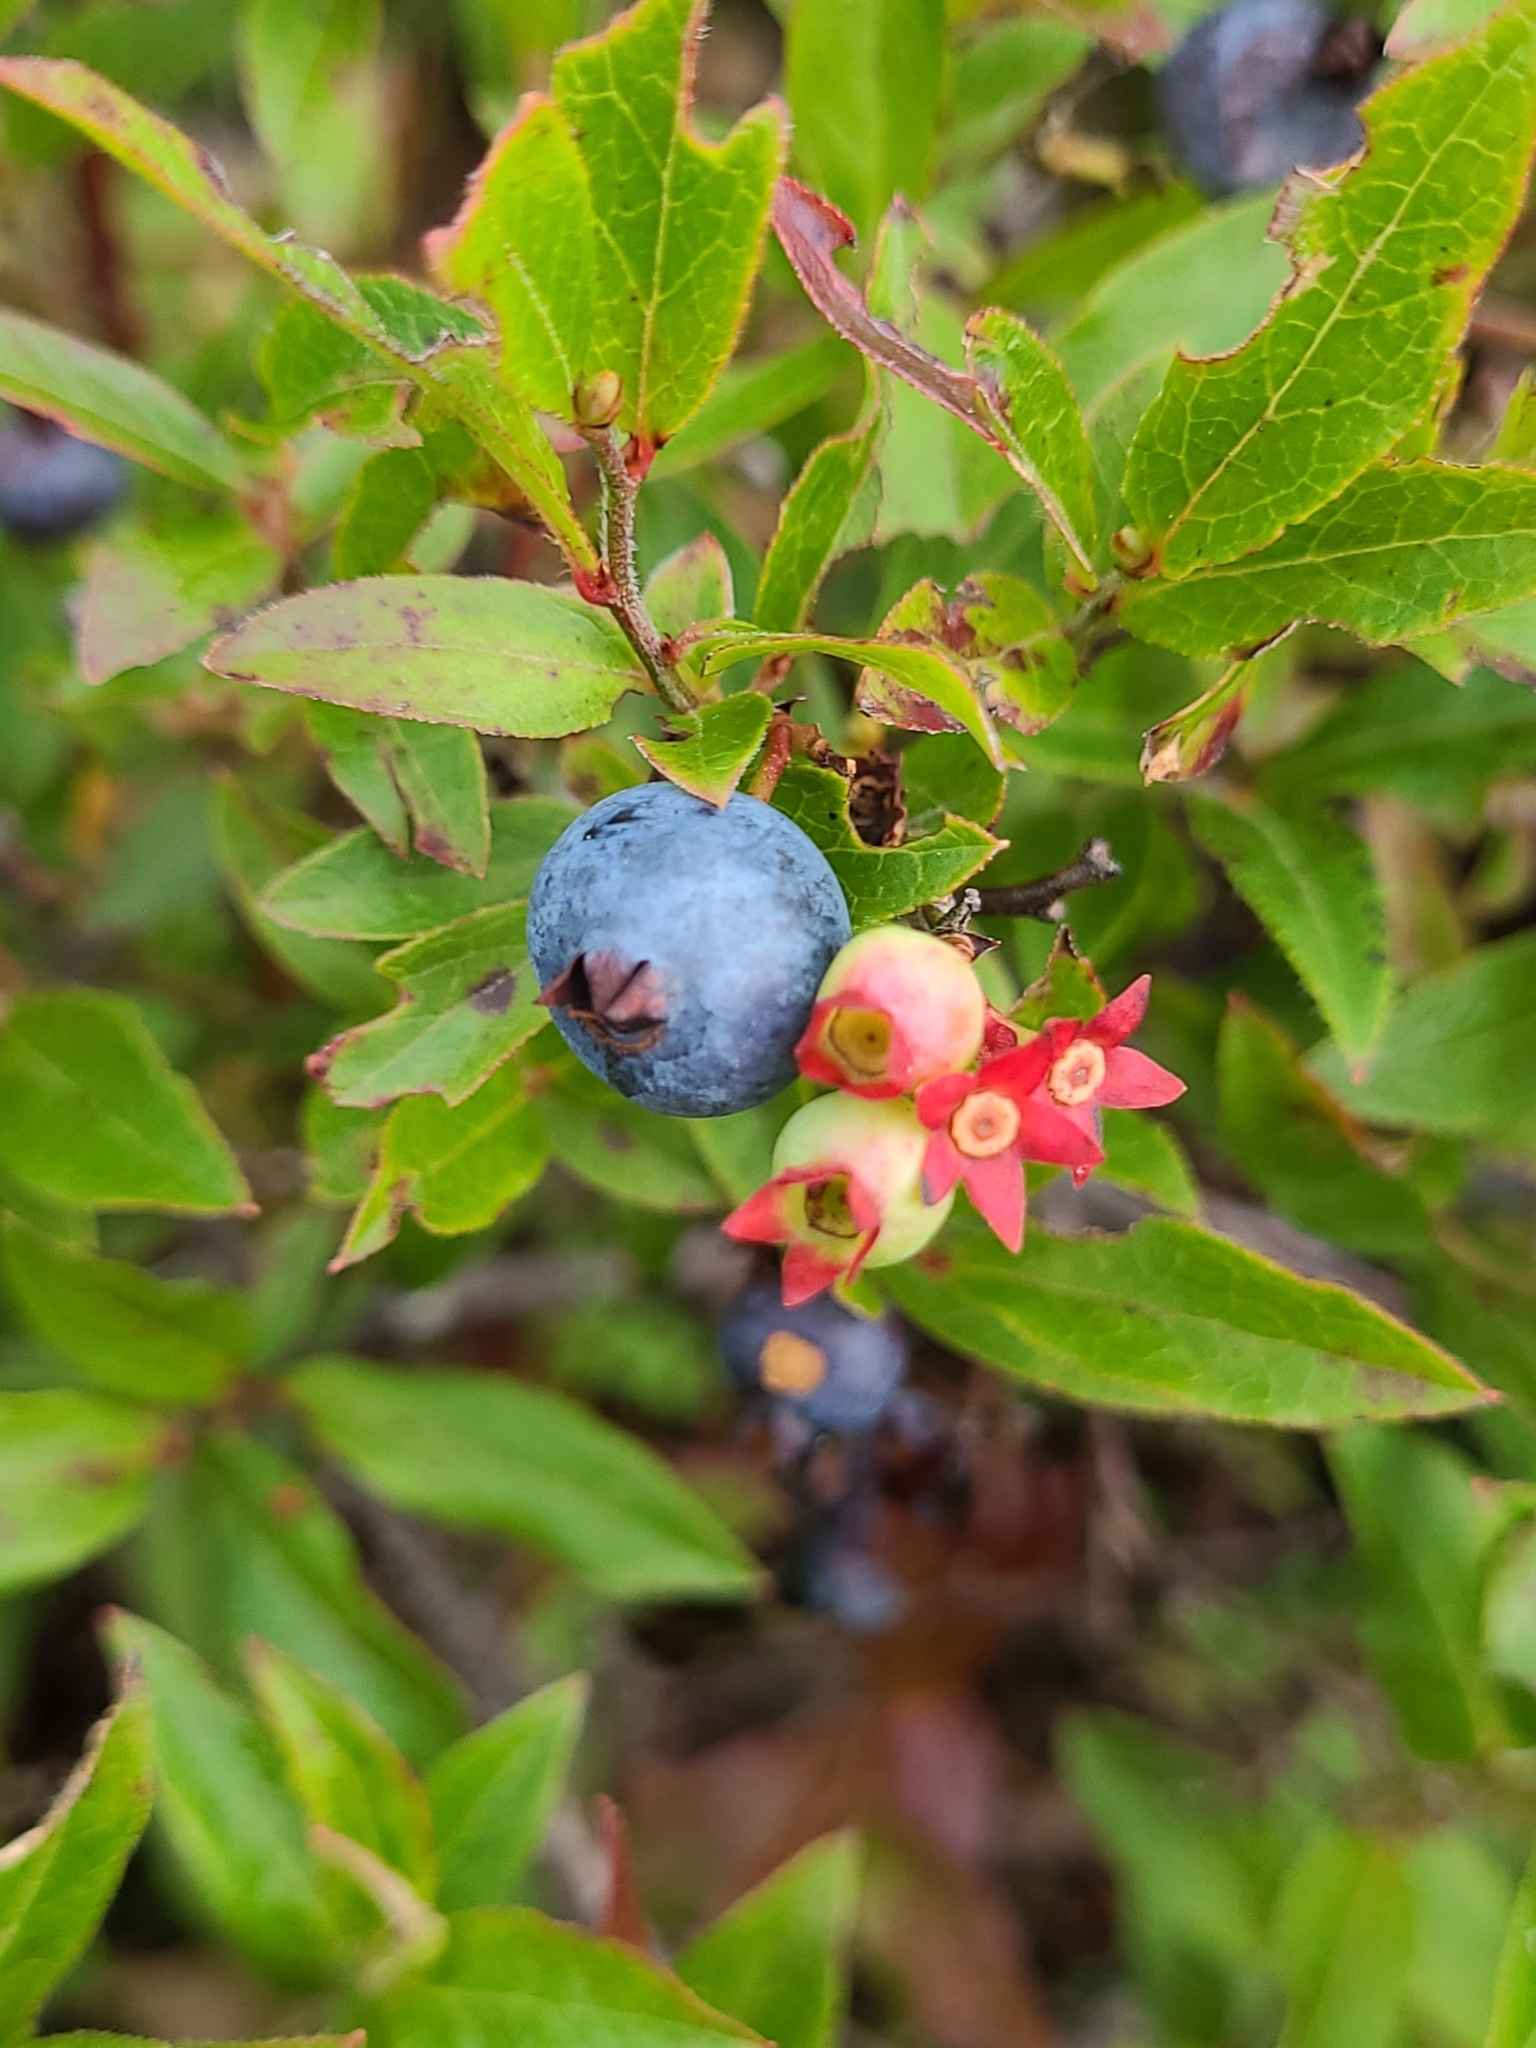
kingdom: Plantae
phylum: Tracheophyta
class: Magnoliopsida
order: Ericales
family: Ericaceae
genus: Vaccinium
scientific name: Vaccinium angustifolium
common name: Early lowbush blueberry
